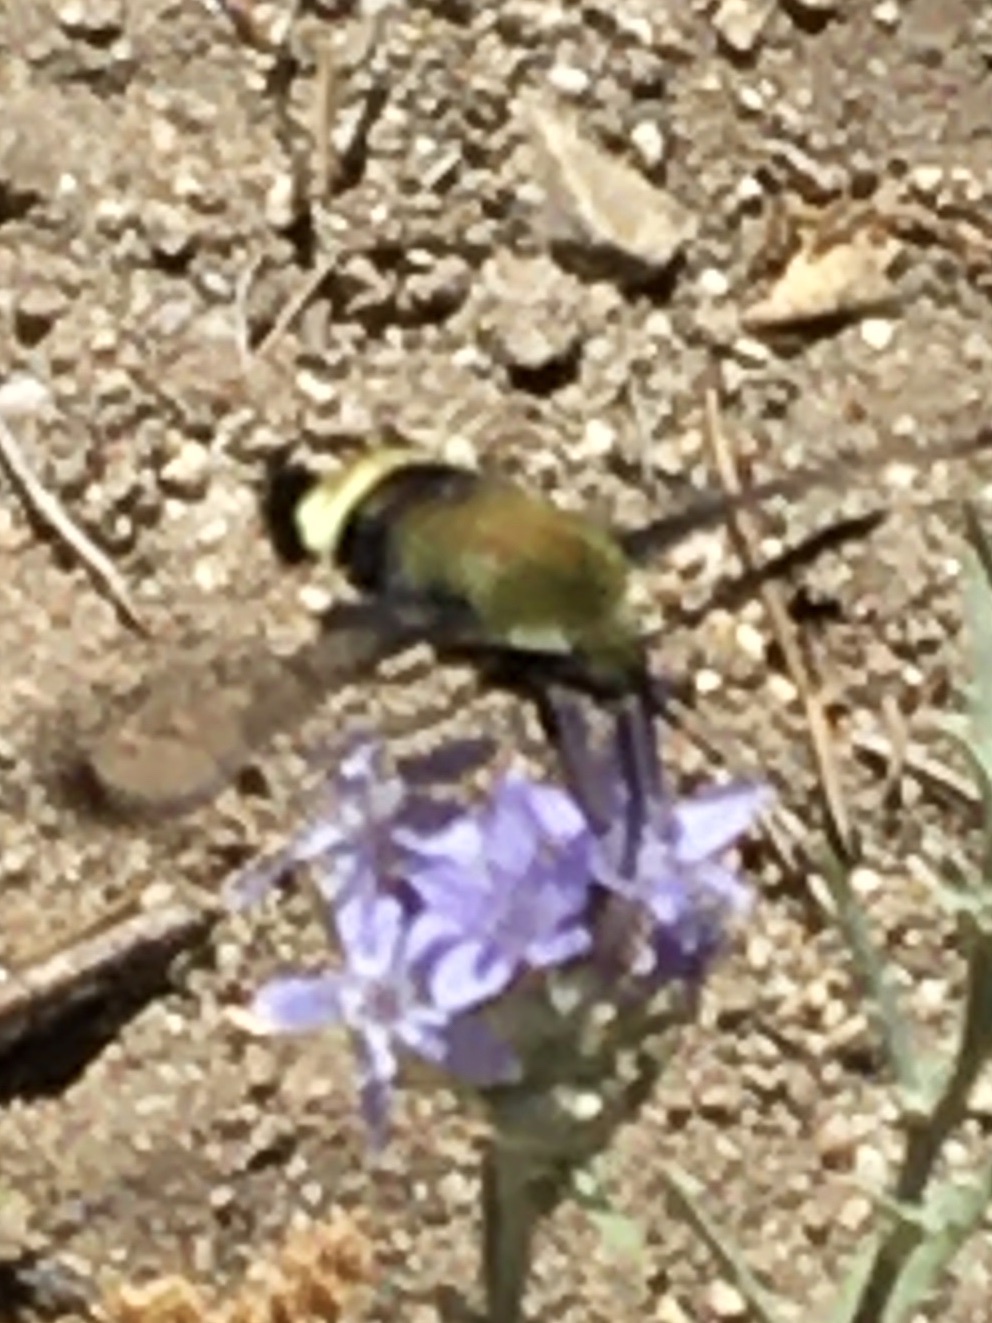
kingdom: Animalia
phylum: Arthropoda
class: Insecta
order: Lepidoptera
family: Sphingidae
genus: Hemaris
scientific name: Hemaris thetis
